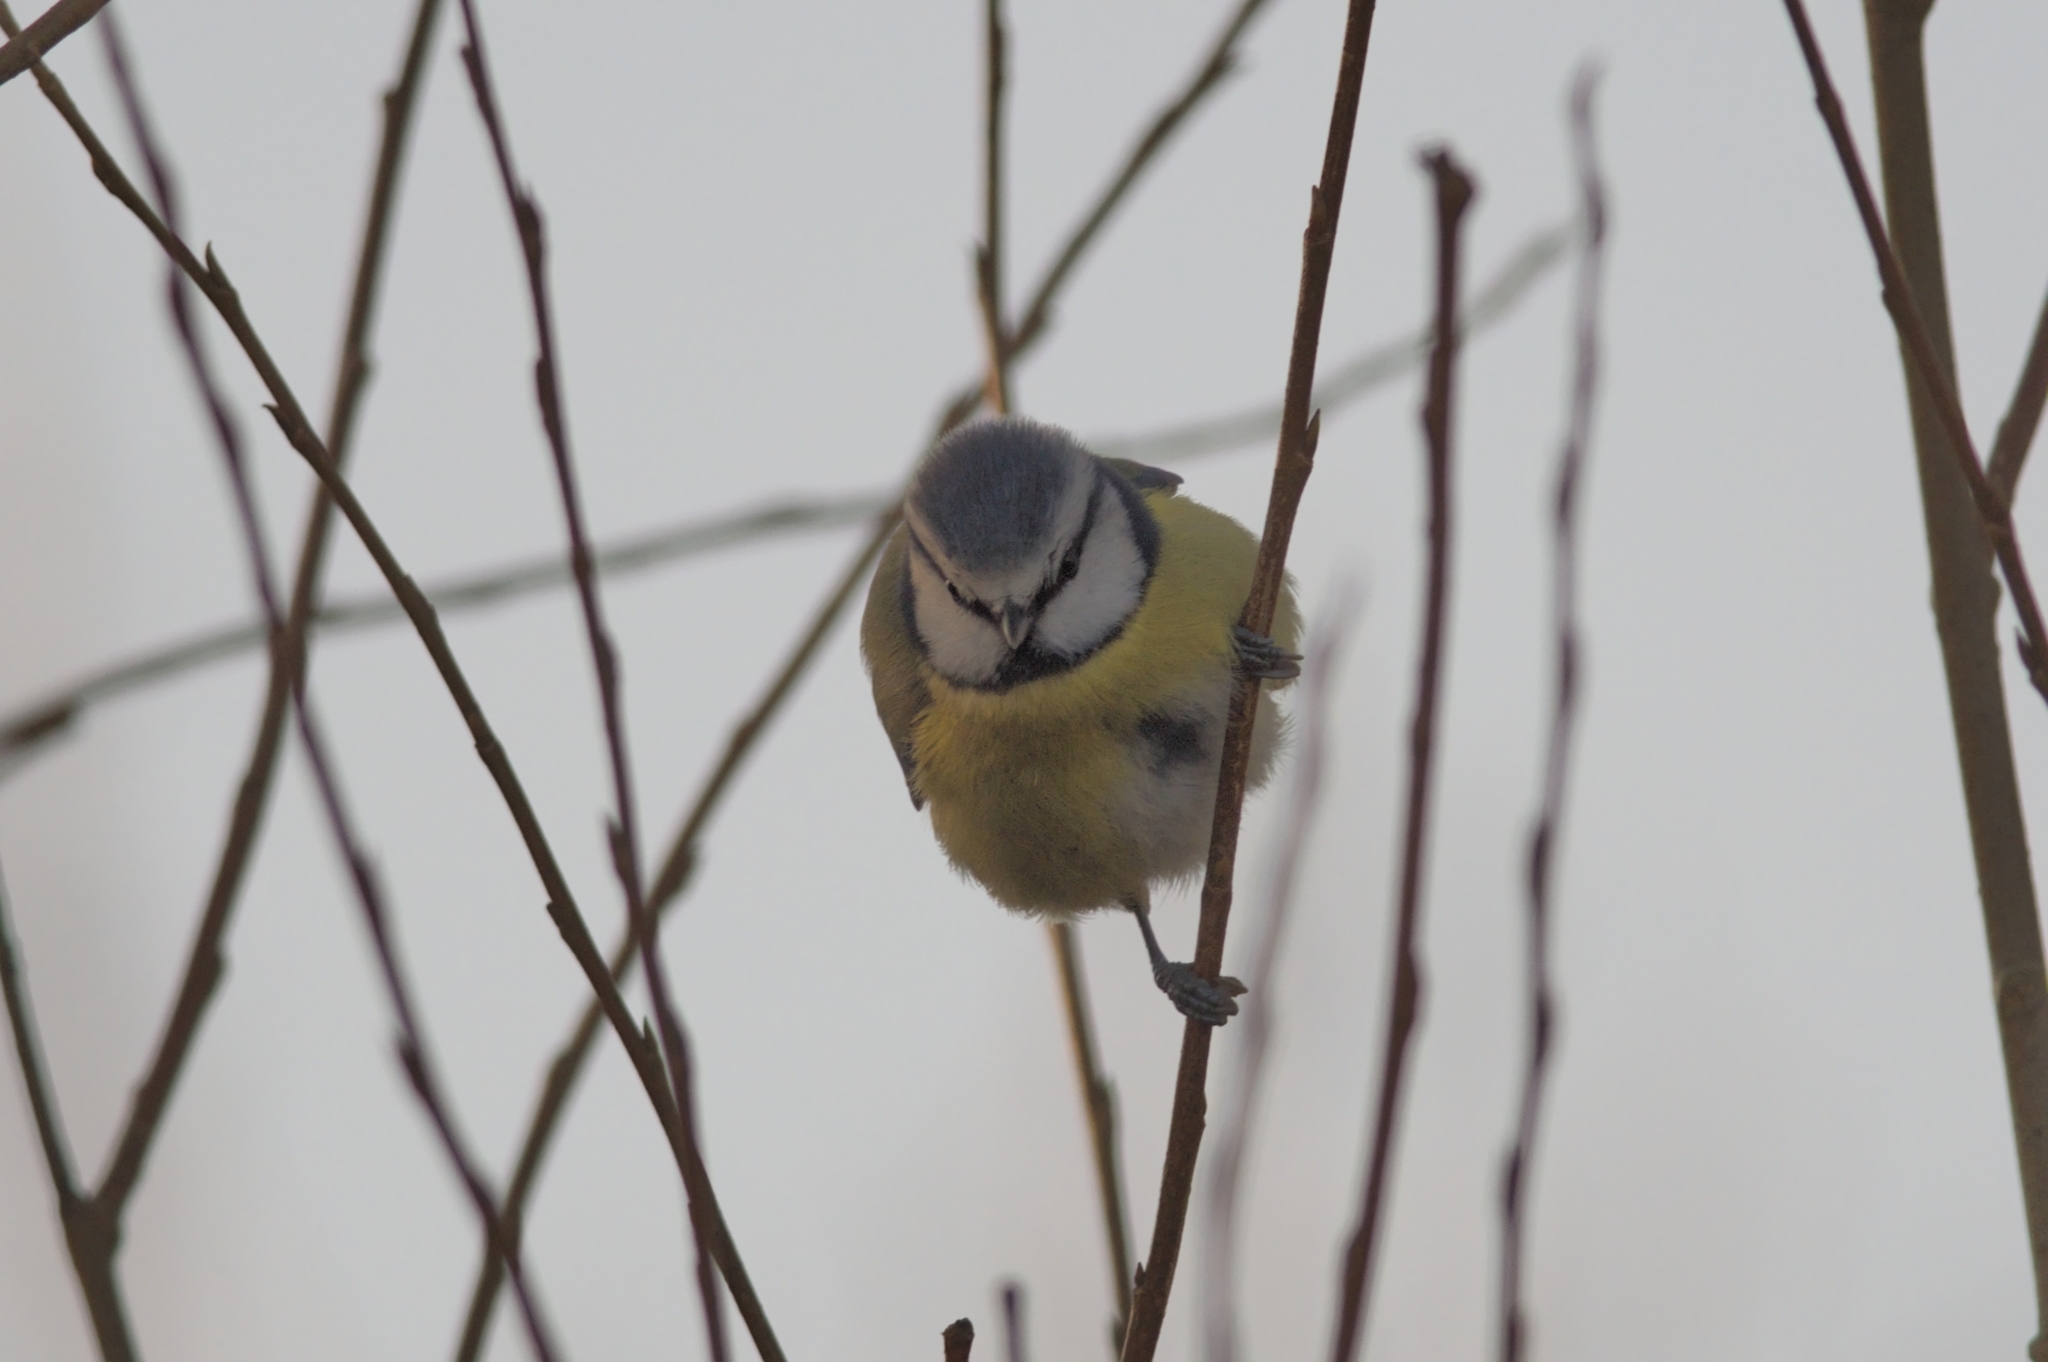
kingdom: Animalia
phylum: Chordata
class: Aves
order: Passeriformes
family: Paridae
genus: Cyanistes
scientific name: Cyanistes caeruleus
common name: Eurasian blue tit
